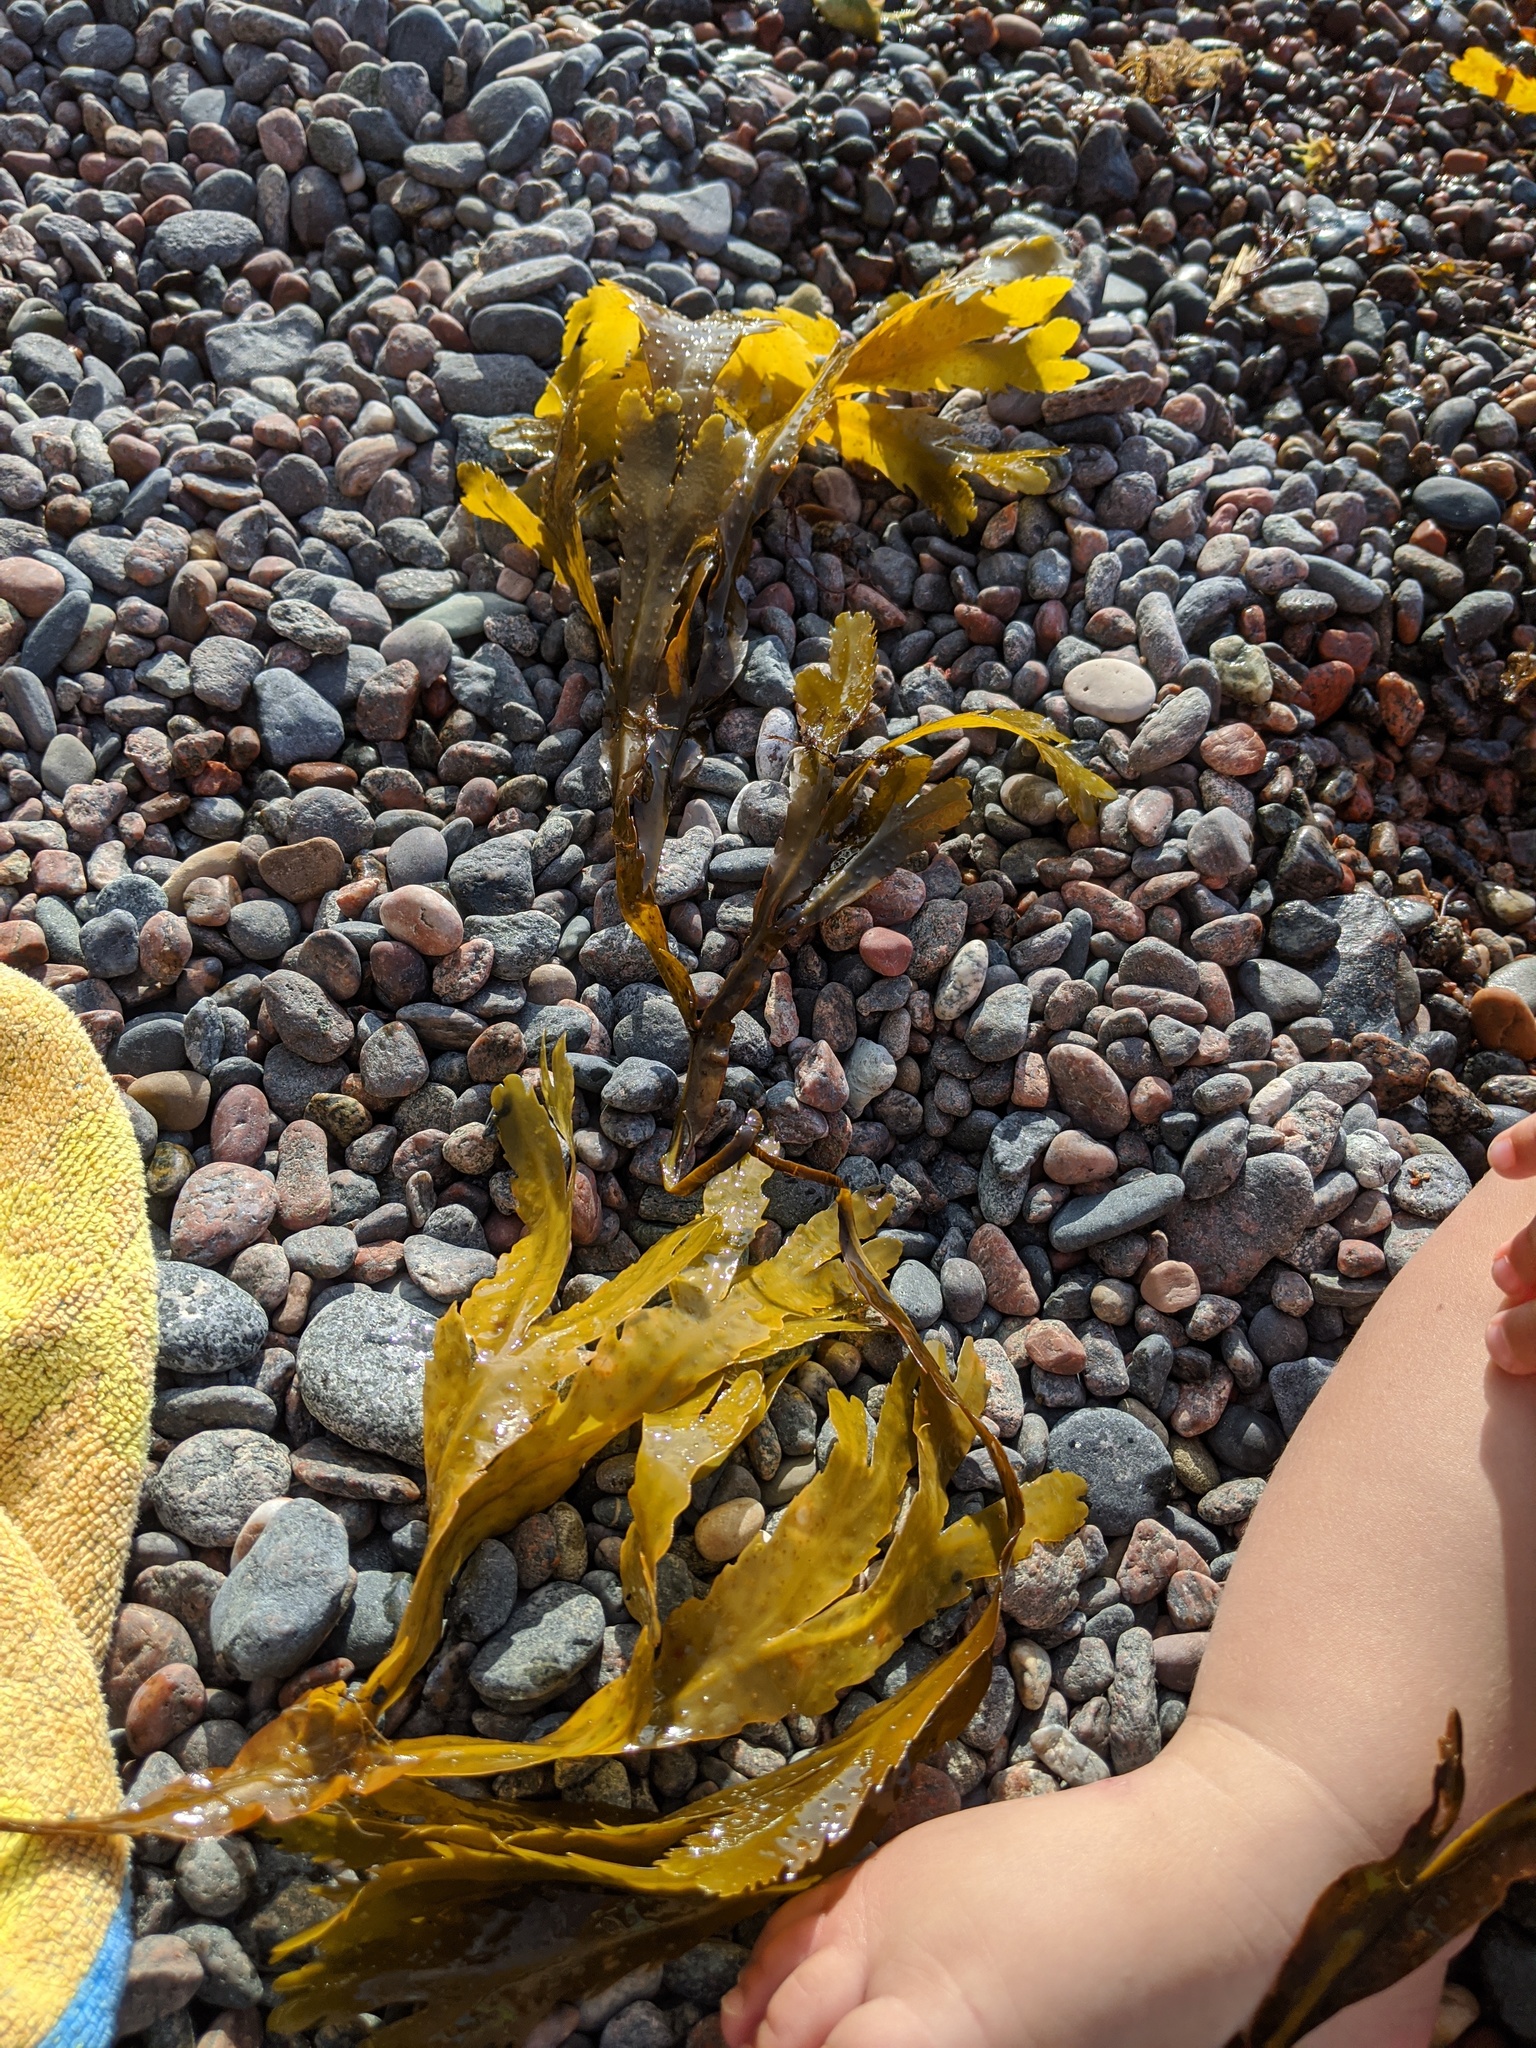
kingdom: Chromista
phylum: Ochrophyta
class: Phaeophyceae
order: Fucales
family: Fucaceae
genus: Fucus
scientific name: Fucus serratus
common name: Toothed wrack
